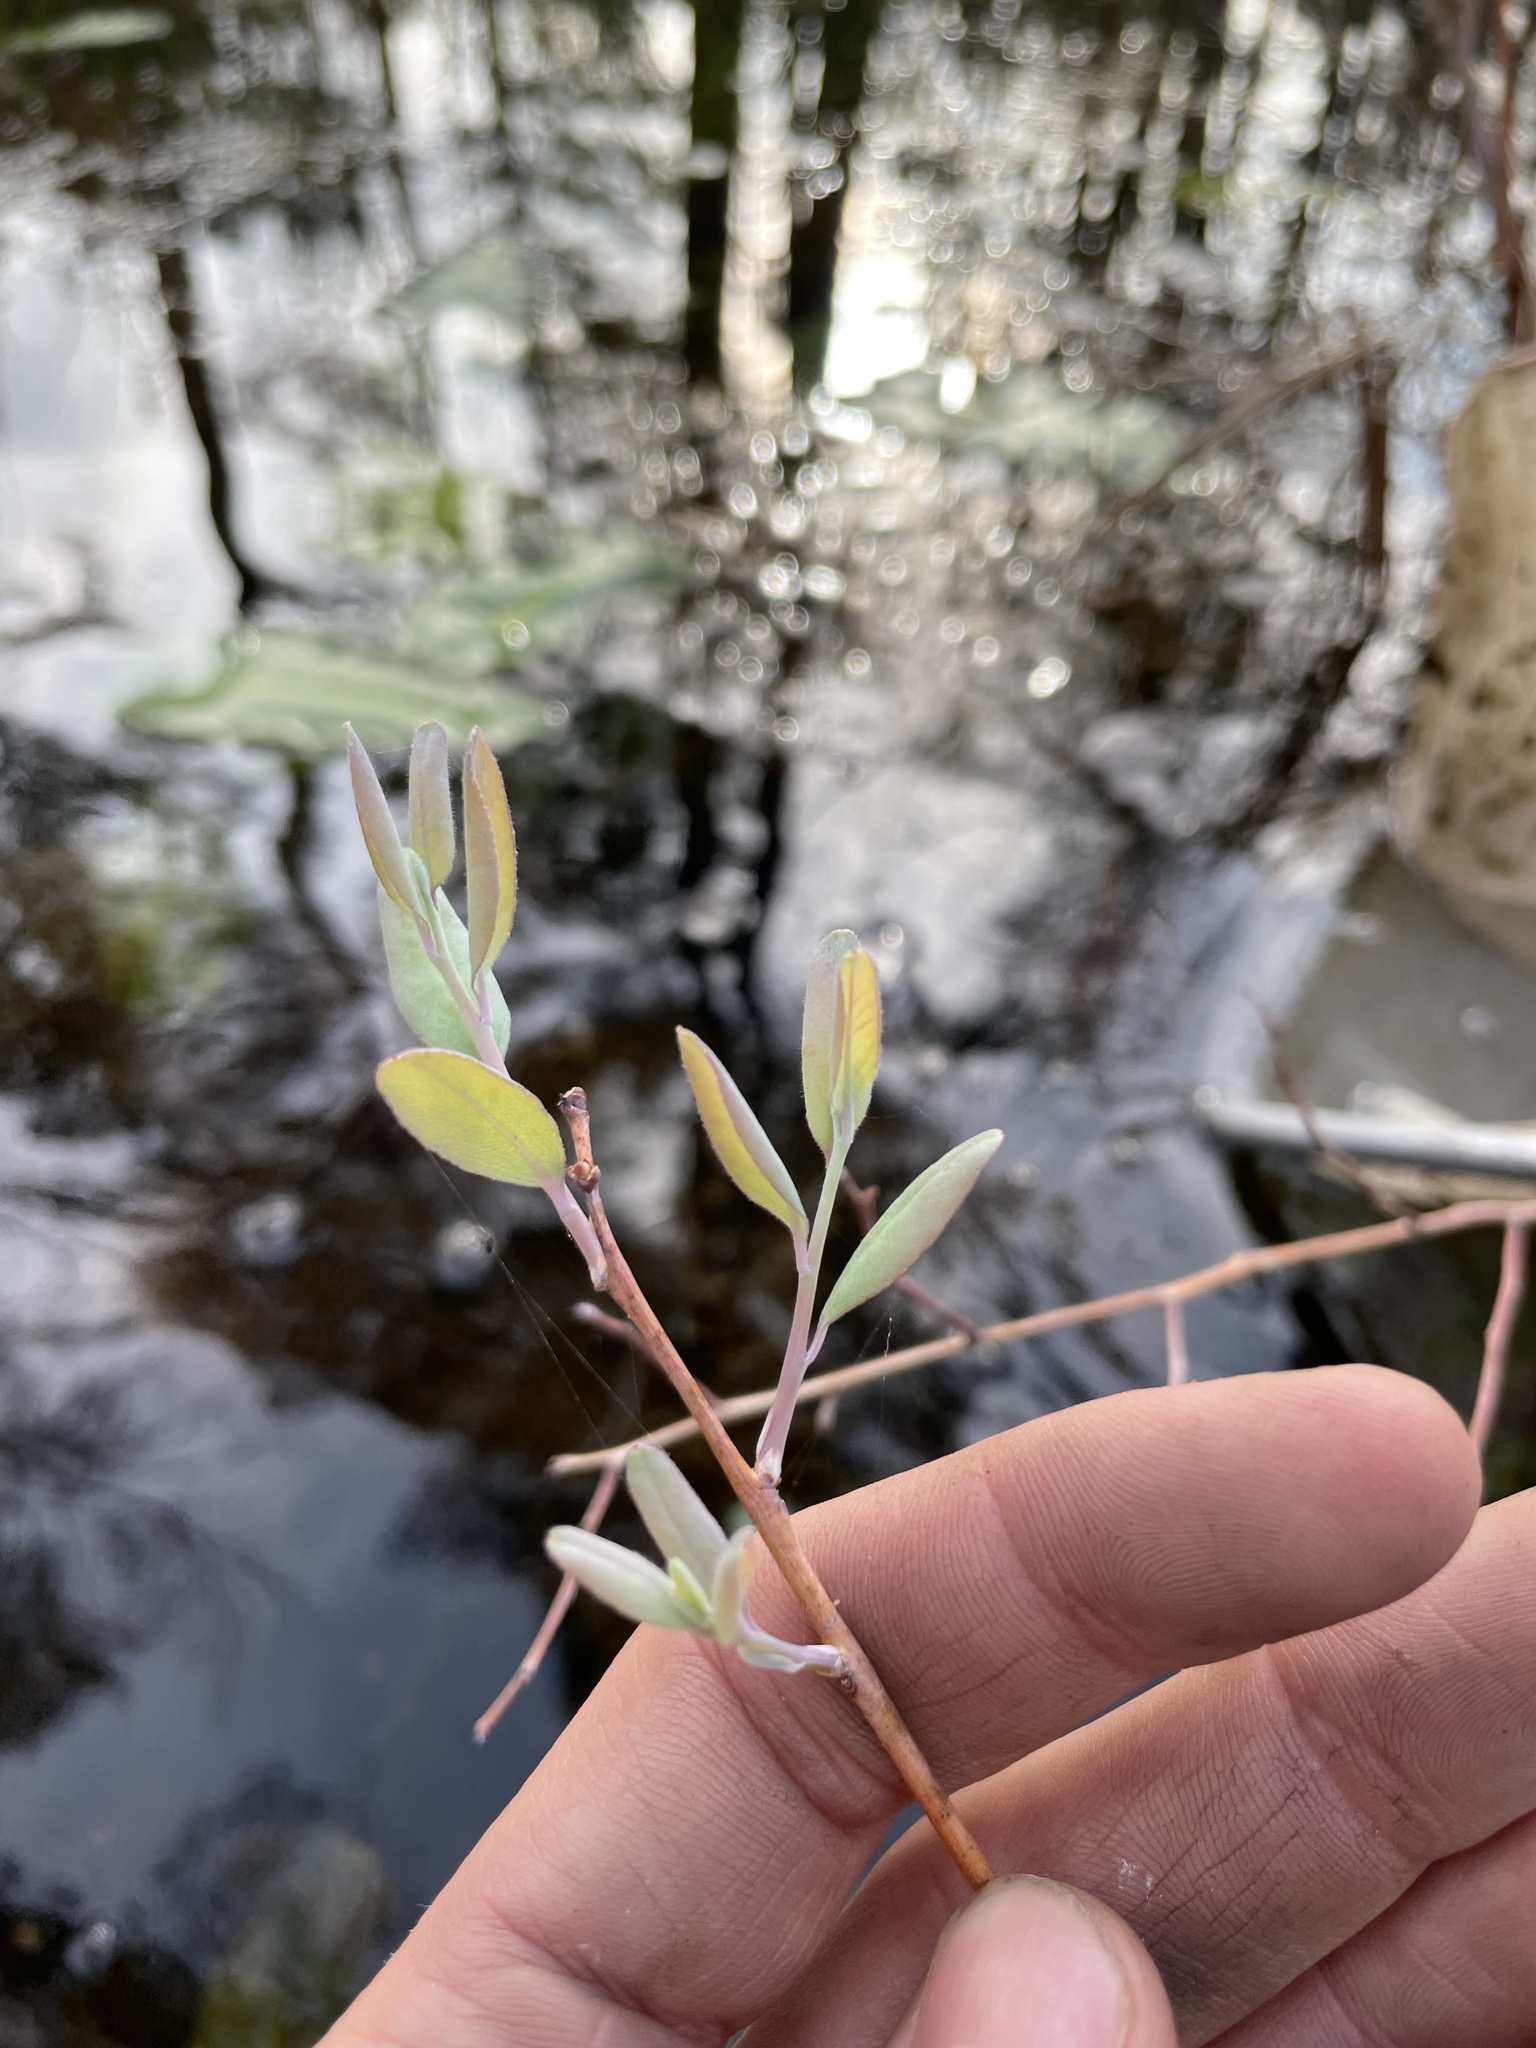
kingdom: Plantae
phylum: Tracheophyta
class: Magnoliopsida
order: Ericales
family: Ericaceae
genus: Zenobia
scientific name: Zenobia pulverulenta
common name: Zenobia
